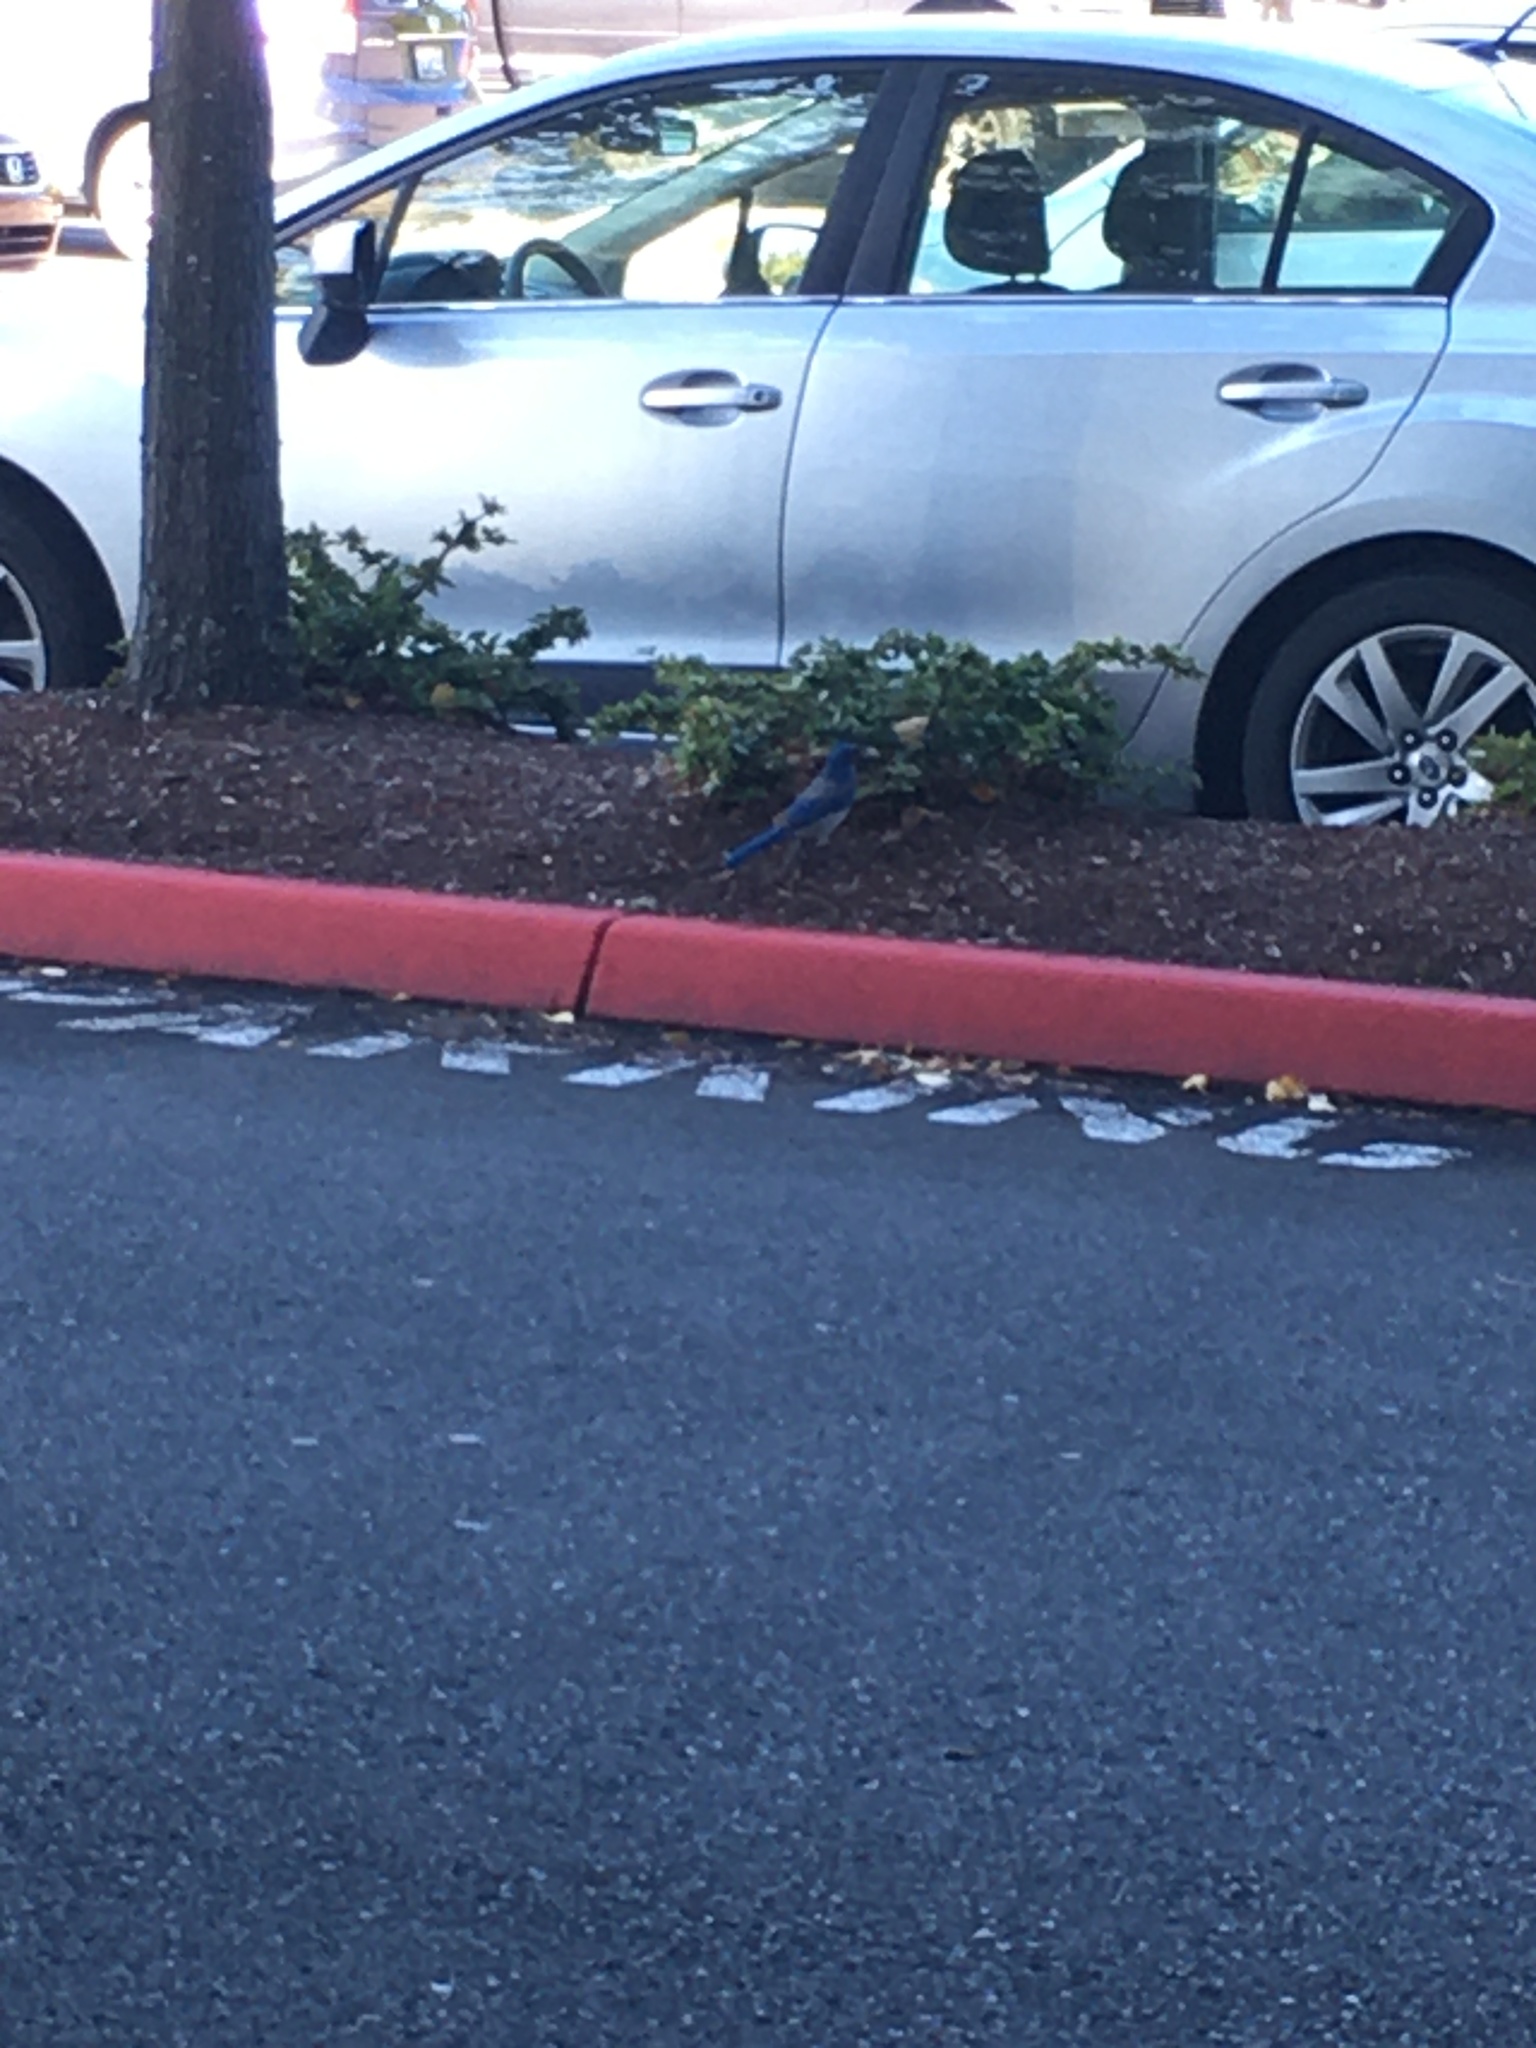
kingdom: Animalia
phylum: Chordata
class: Aves
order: Passeriformes
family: Corvidae
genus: Aphelocoma
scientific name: Aphelocoma californica
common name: California scrub-jay
